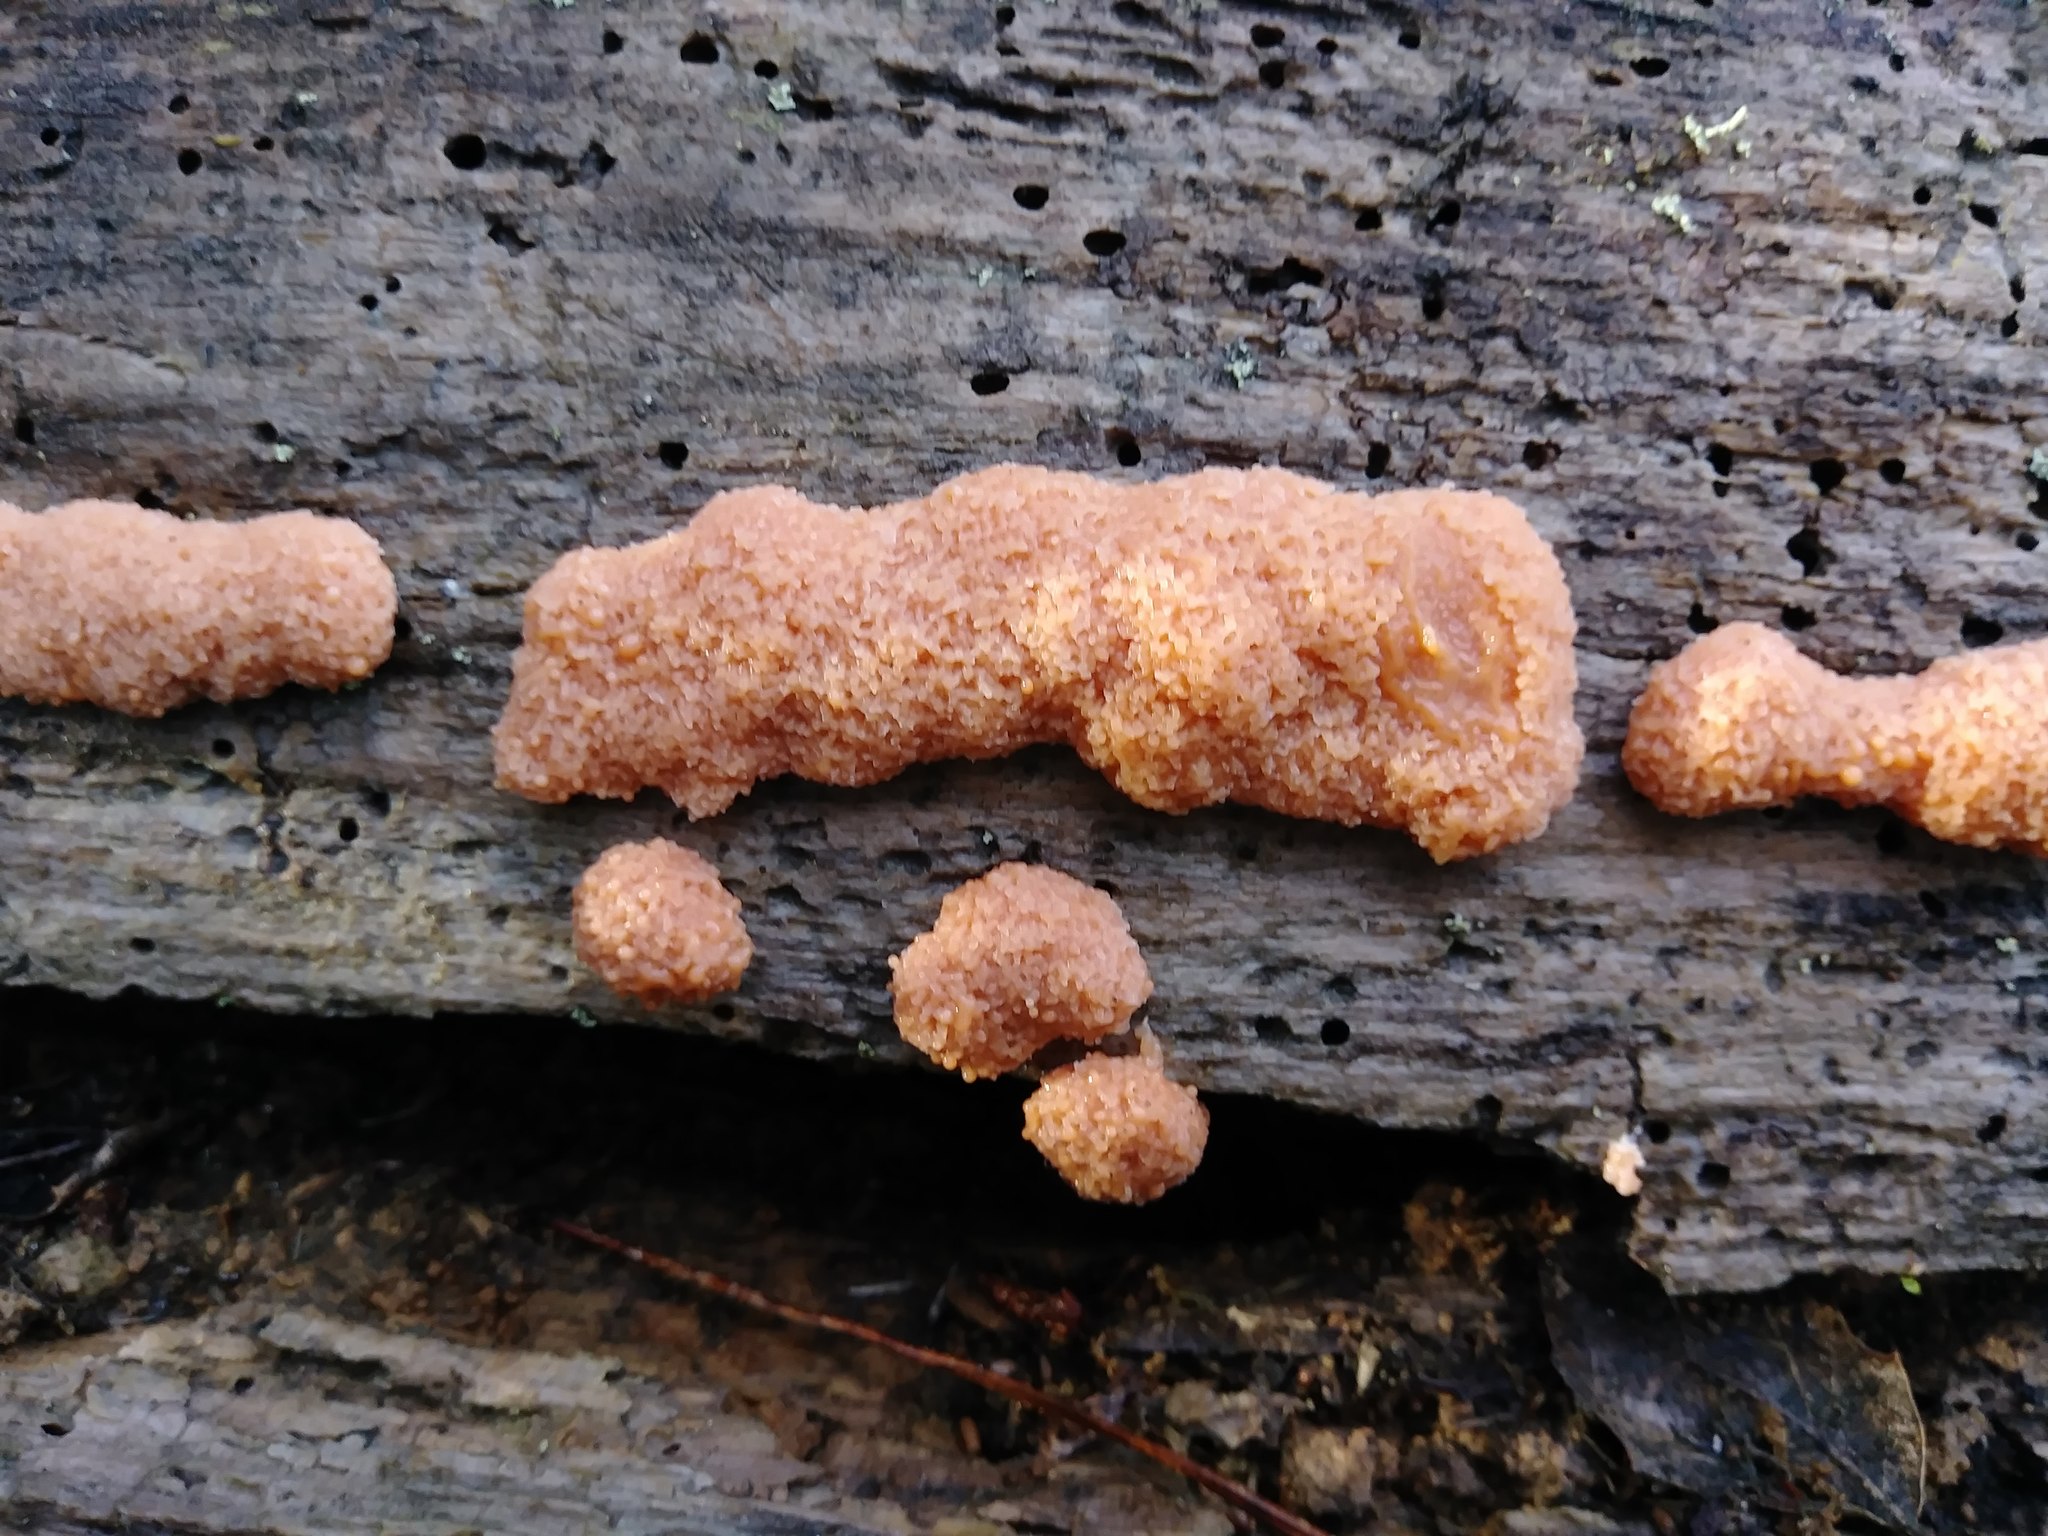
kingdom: Protozoa
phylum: Mycetozoa
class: Myxomycetes
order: Cribrariales
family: Tubiferaceae
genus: Tubifera
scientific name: Tubifera ferruginosa
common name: Red raspberry slime mold
